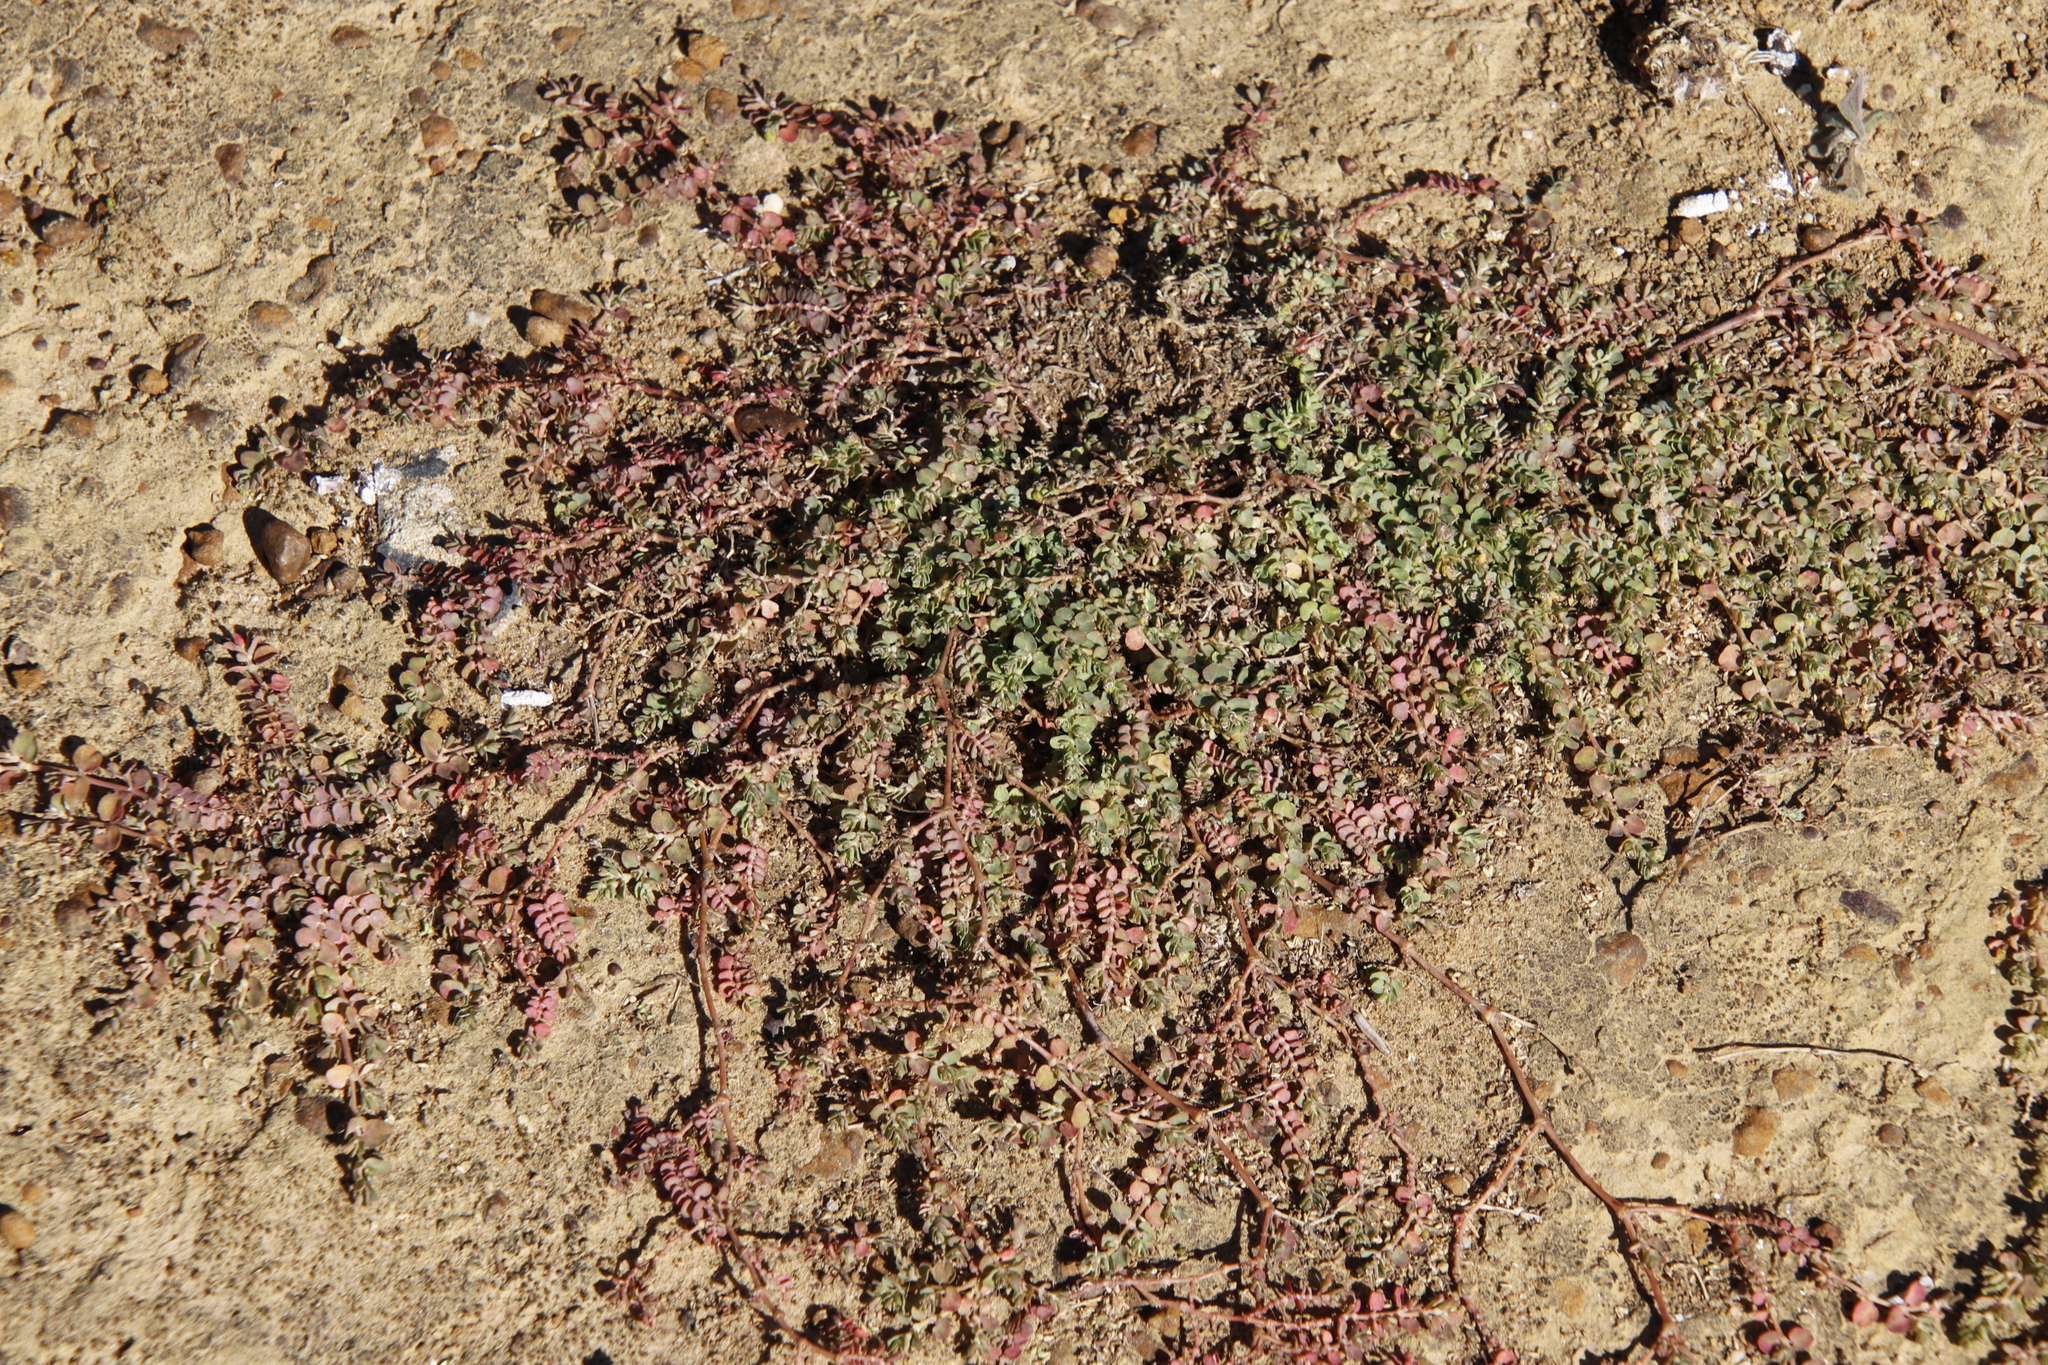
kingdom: Plantae
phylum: Tracheophyta
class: Magnoliopsida
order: Malpighiales
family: Euphorbiaceae
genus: Euphorbia
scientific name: Euphorbia serpens
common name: Matted sandmat
